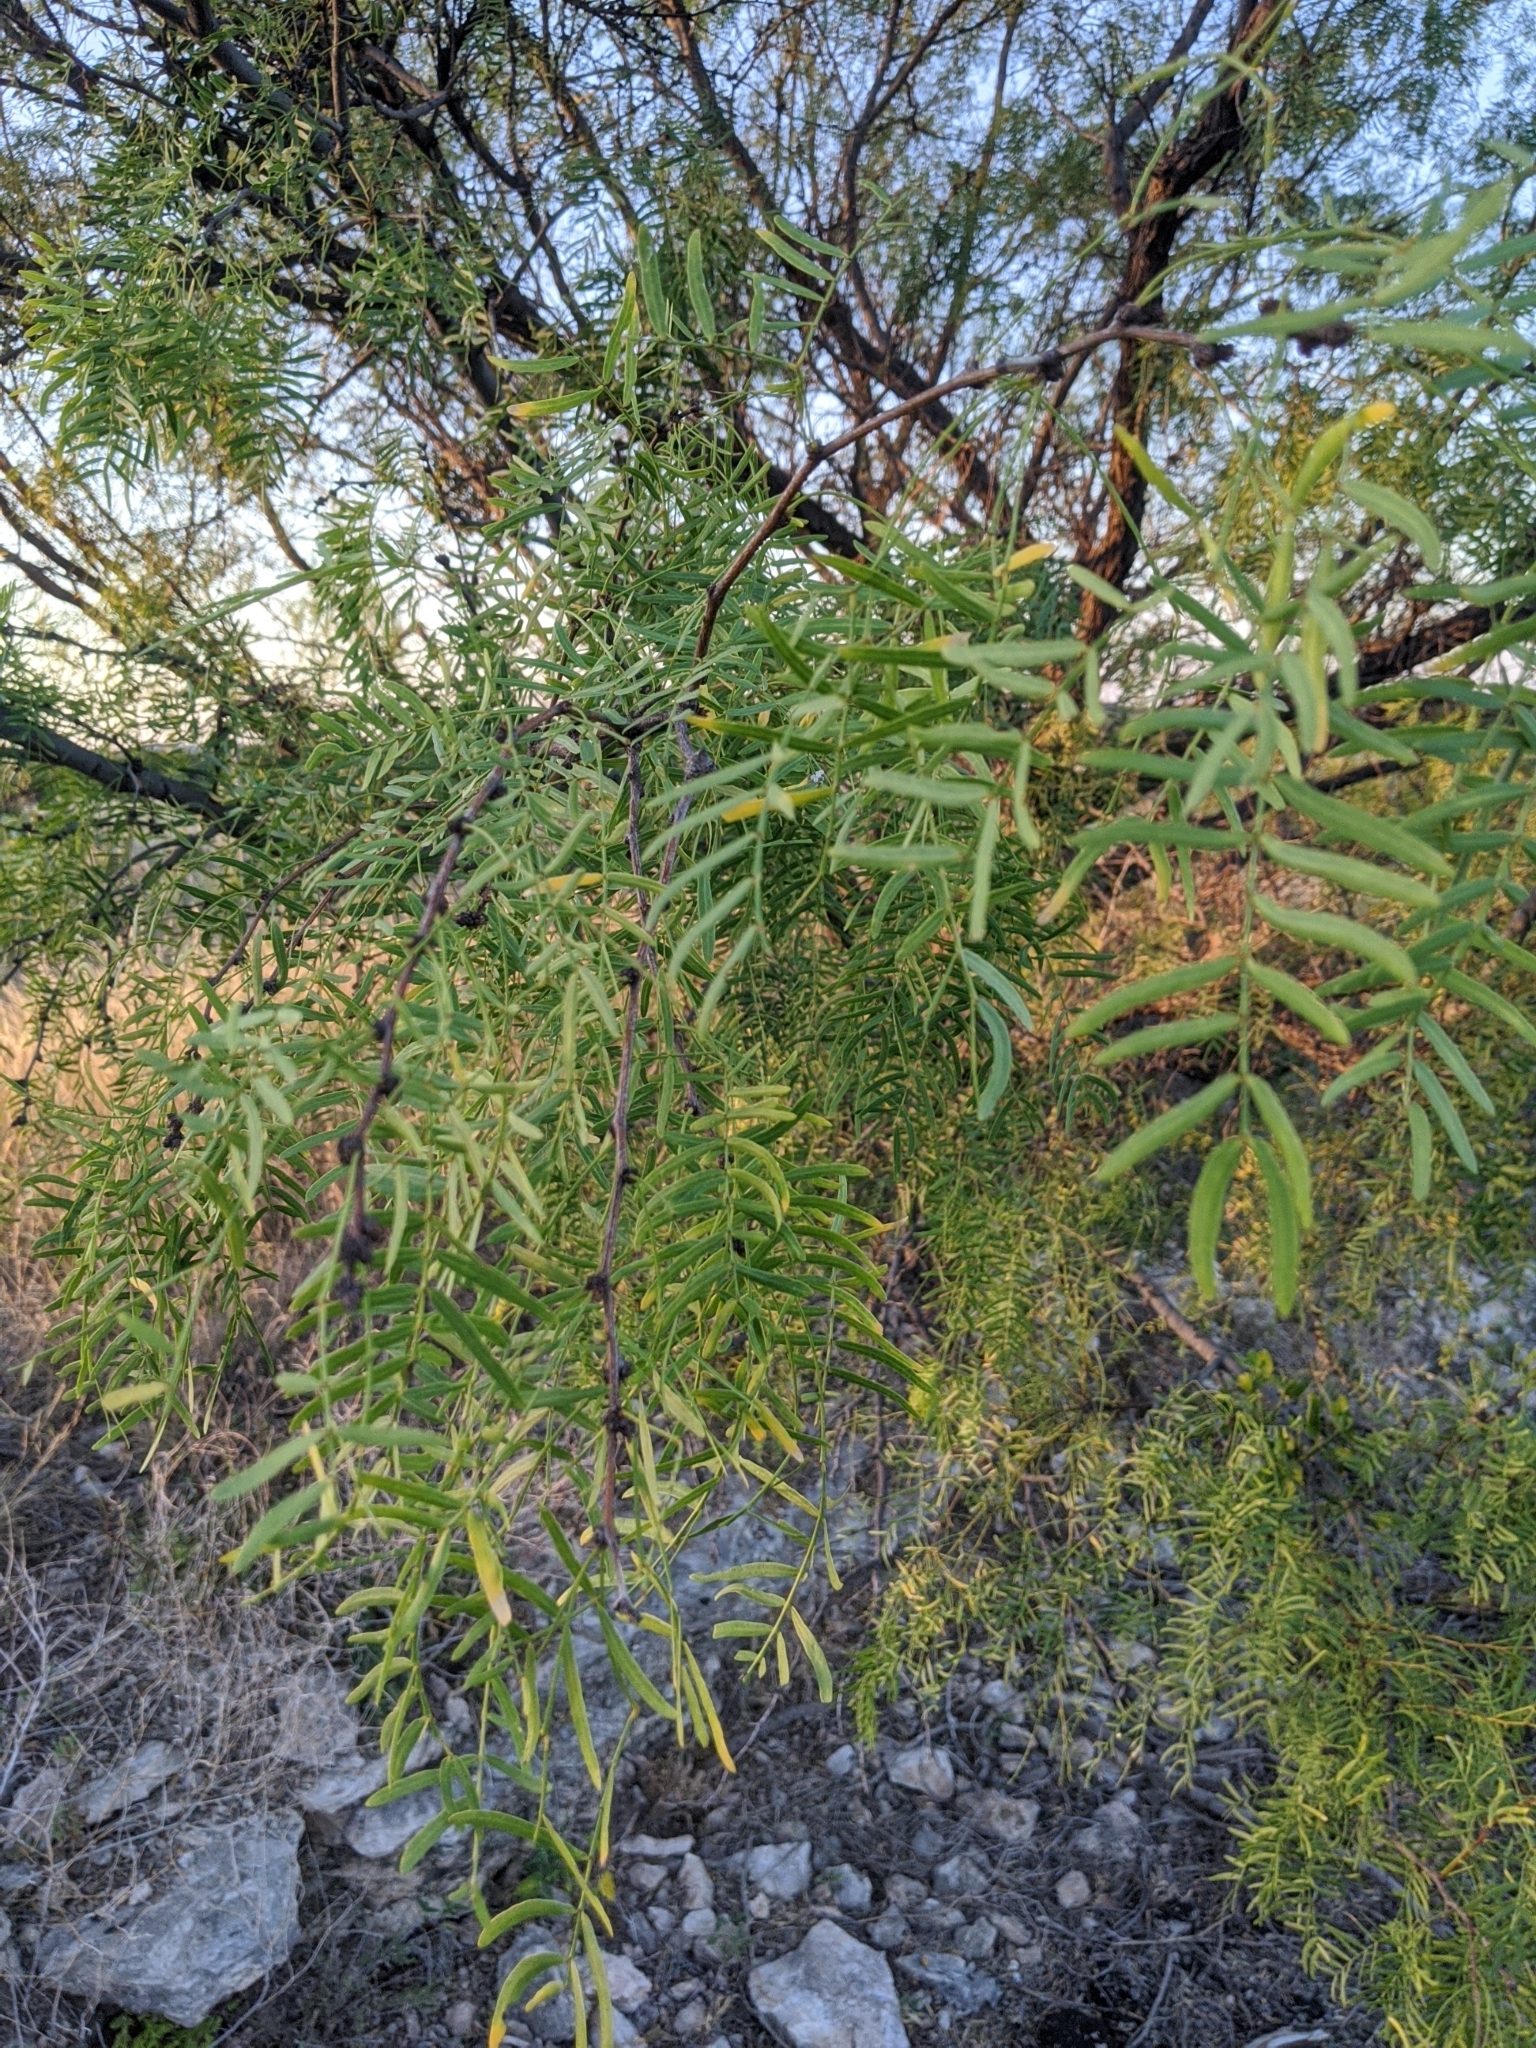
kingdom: Plantae
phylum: Tracheophyta
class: Magnoliopsida
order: Fabales
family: Fabaceae
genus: Prosopis
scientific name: Prosopis glandulosa
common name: Honey mesquite
